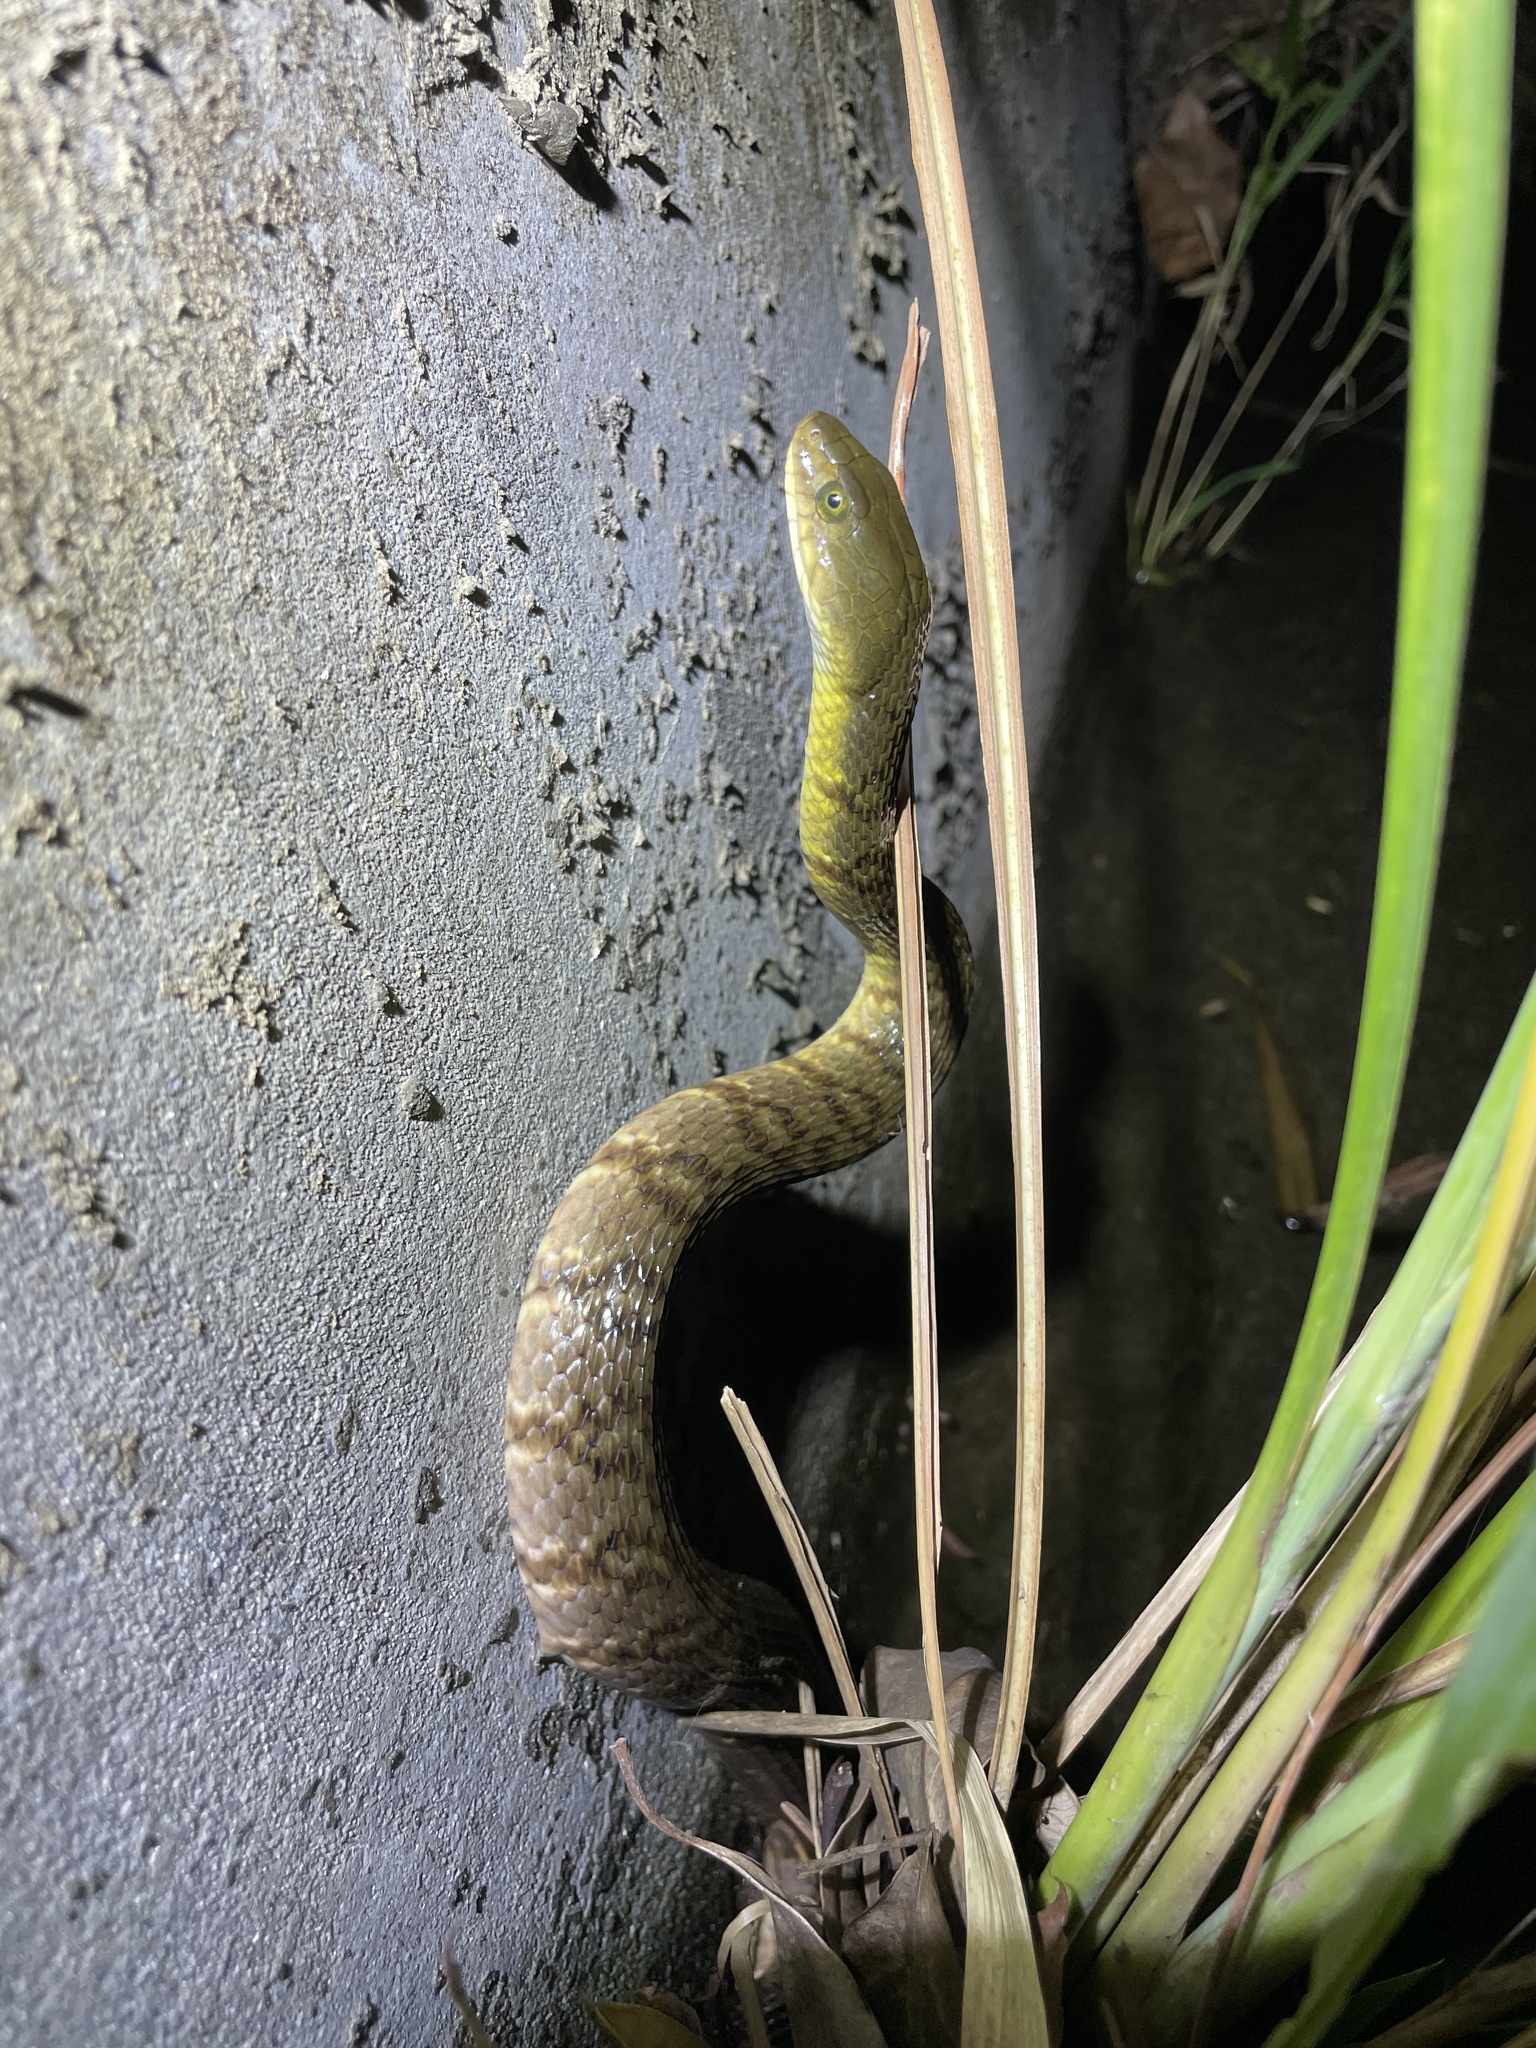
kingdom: Animalia
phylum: Chordata
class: Squamata
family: Colubridae
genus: Trimerodytes
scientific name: Trimerodytes percarinatus
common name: Eastern water snake
